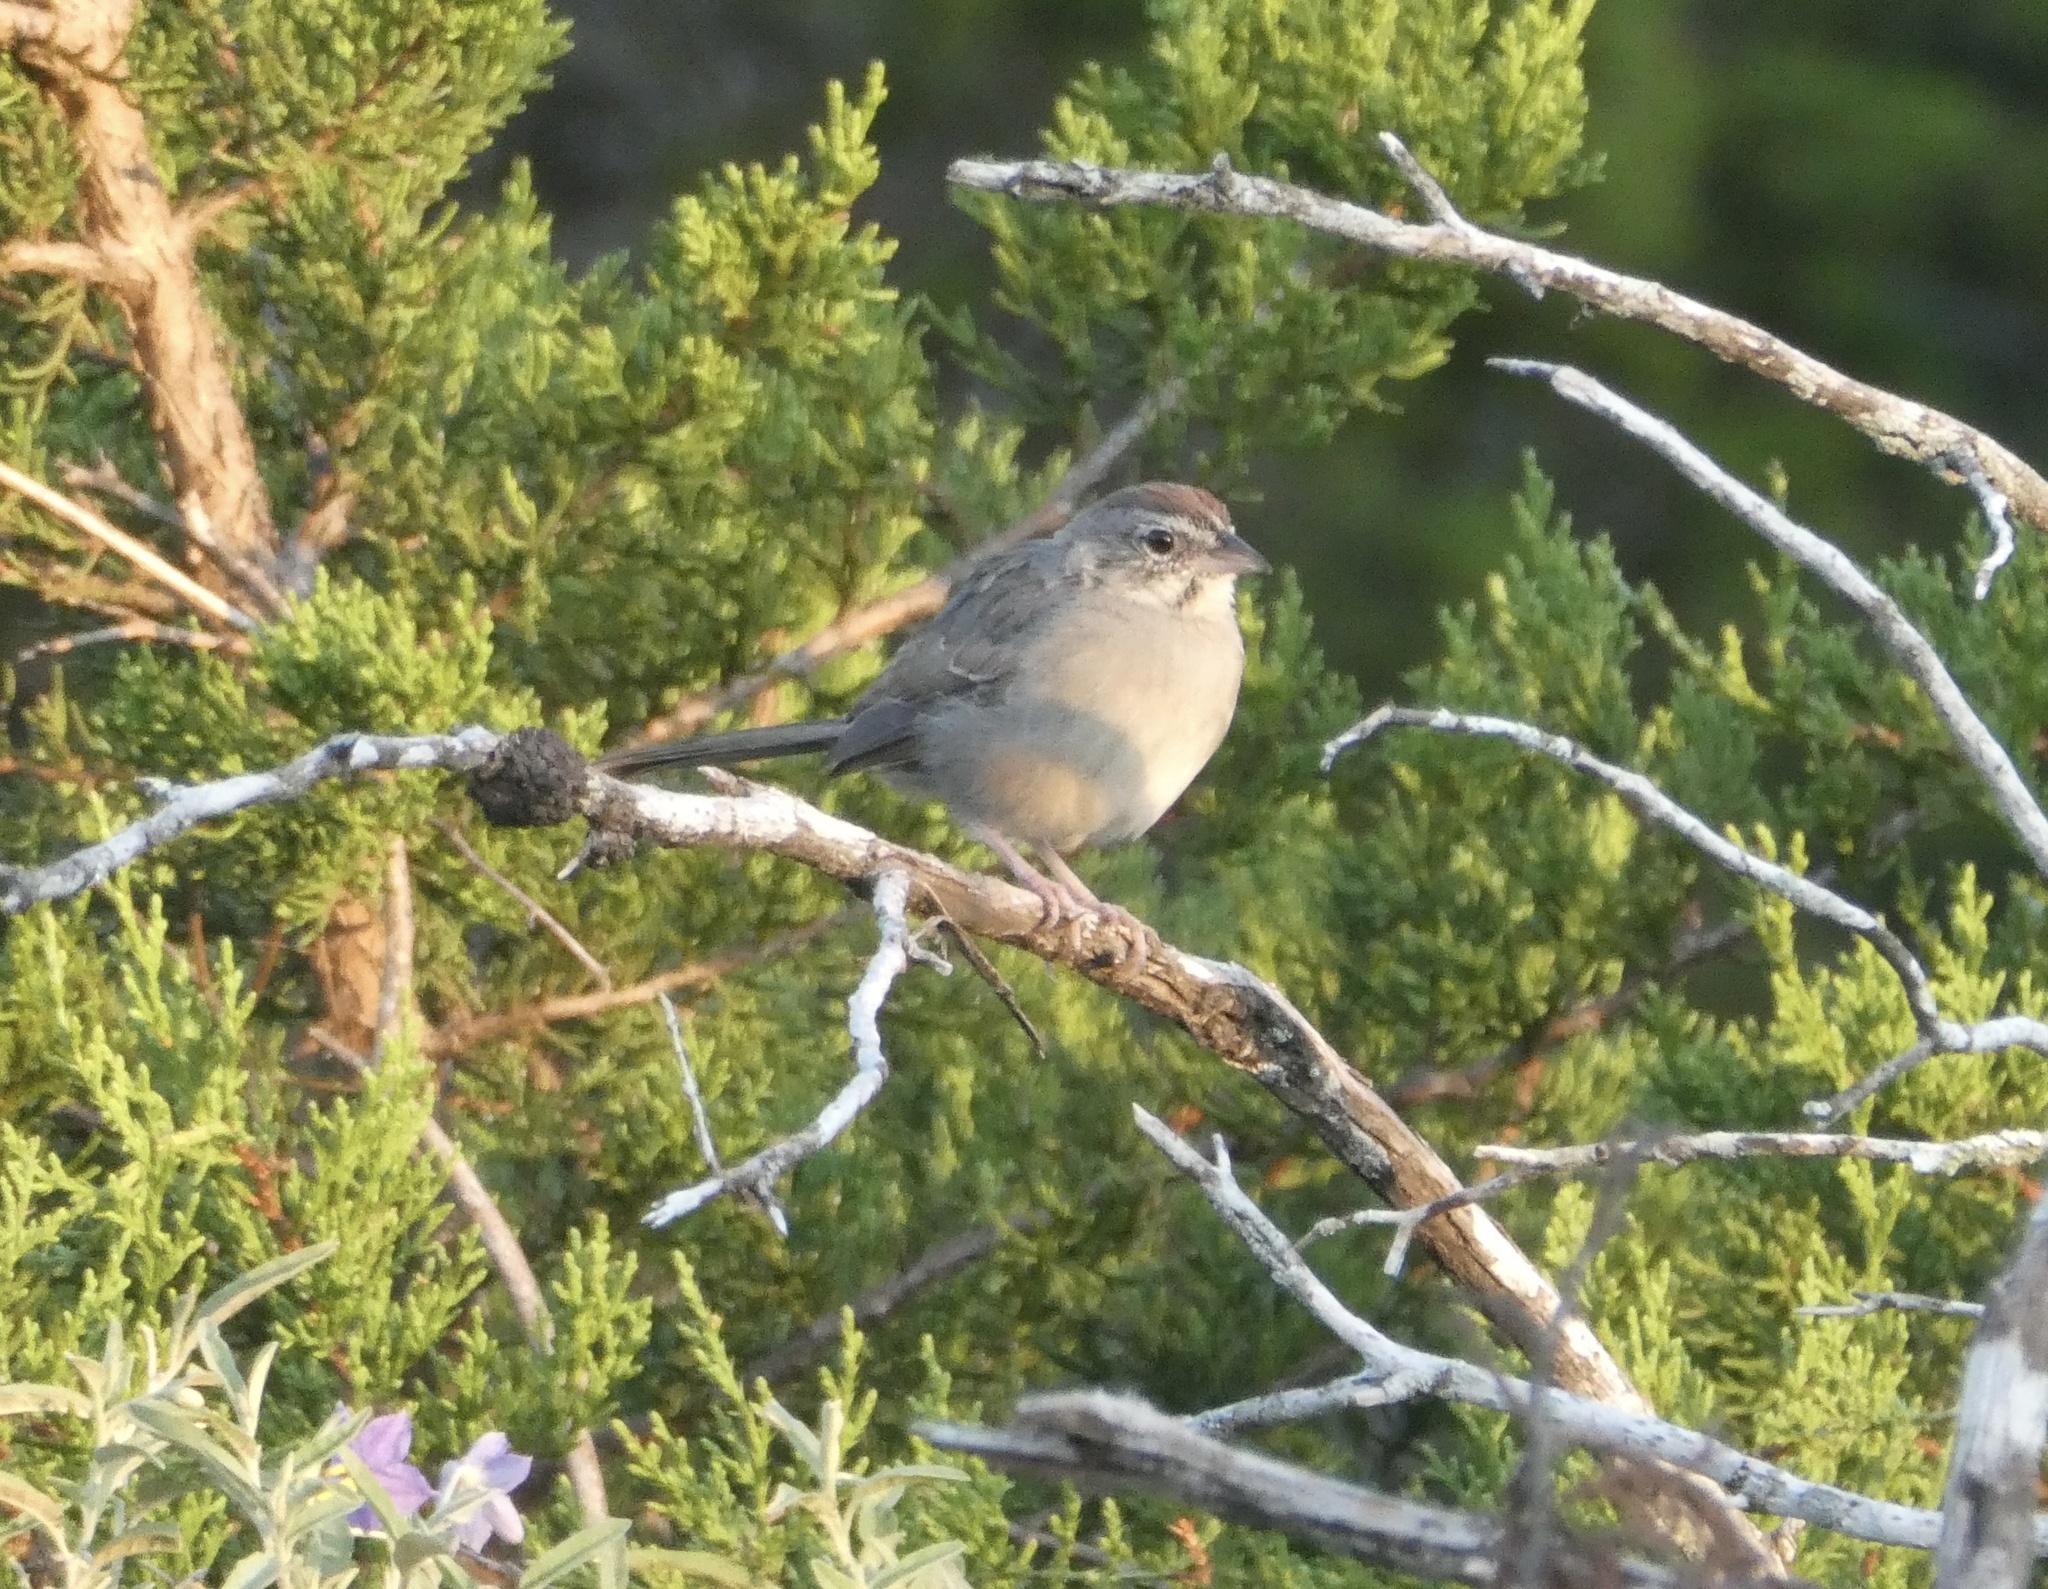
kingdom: Animalia
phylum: Chordata
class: Aves
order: Passeriformes
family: Passerellidae
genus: Aimophila
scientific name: Aimophila ruficeps
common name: Rufous-crowned sparrow
